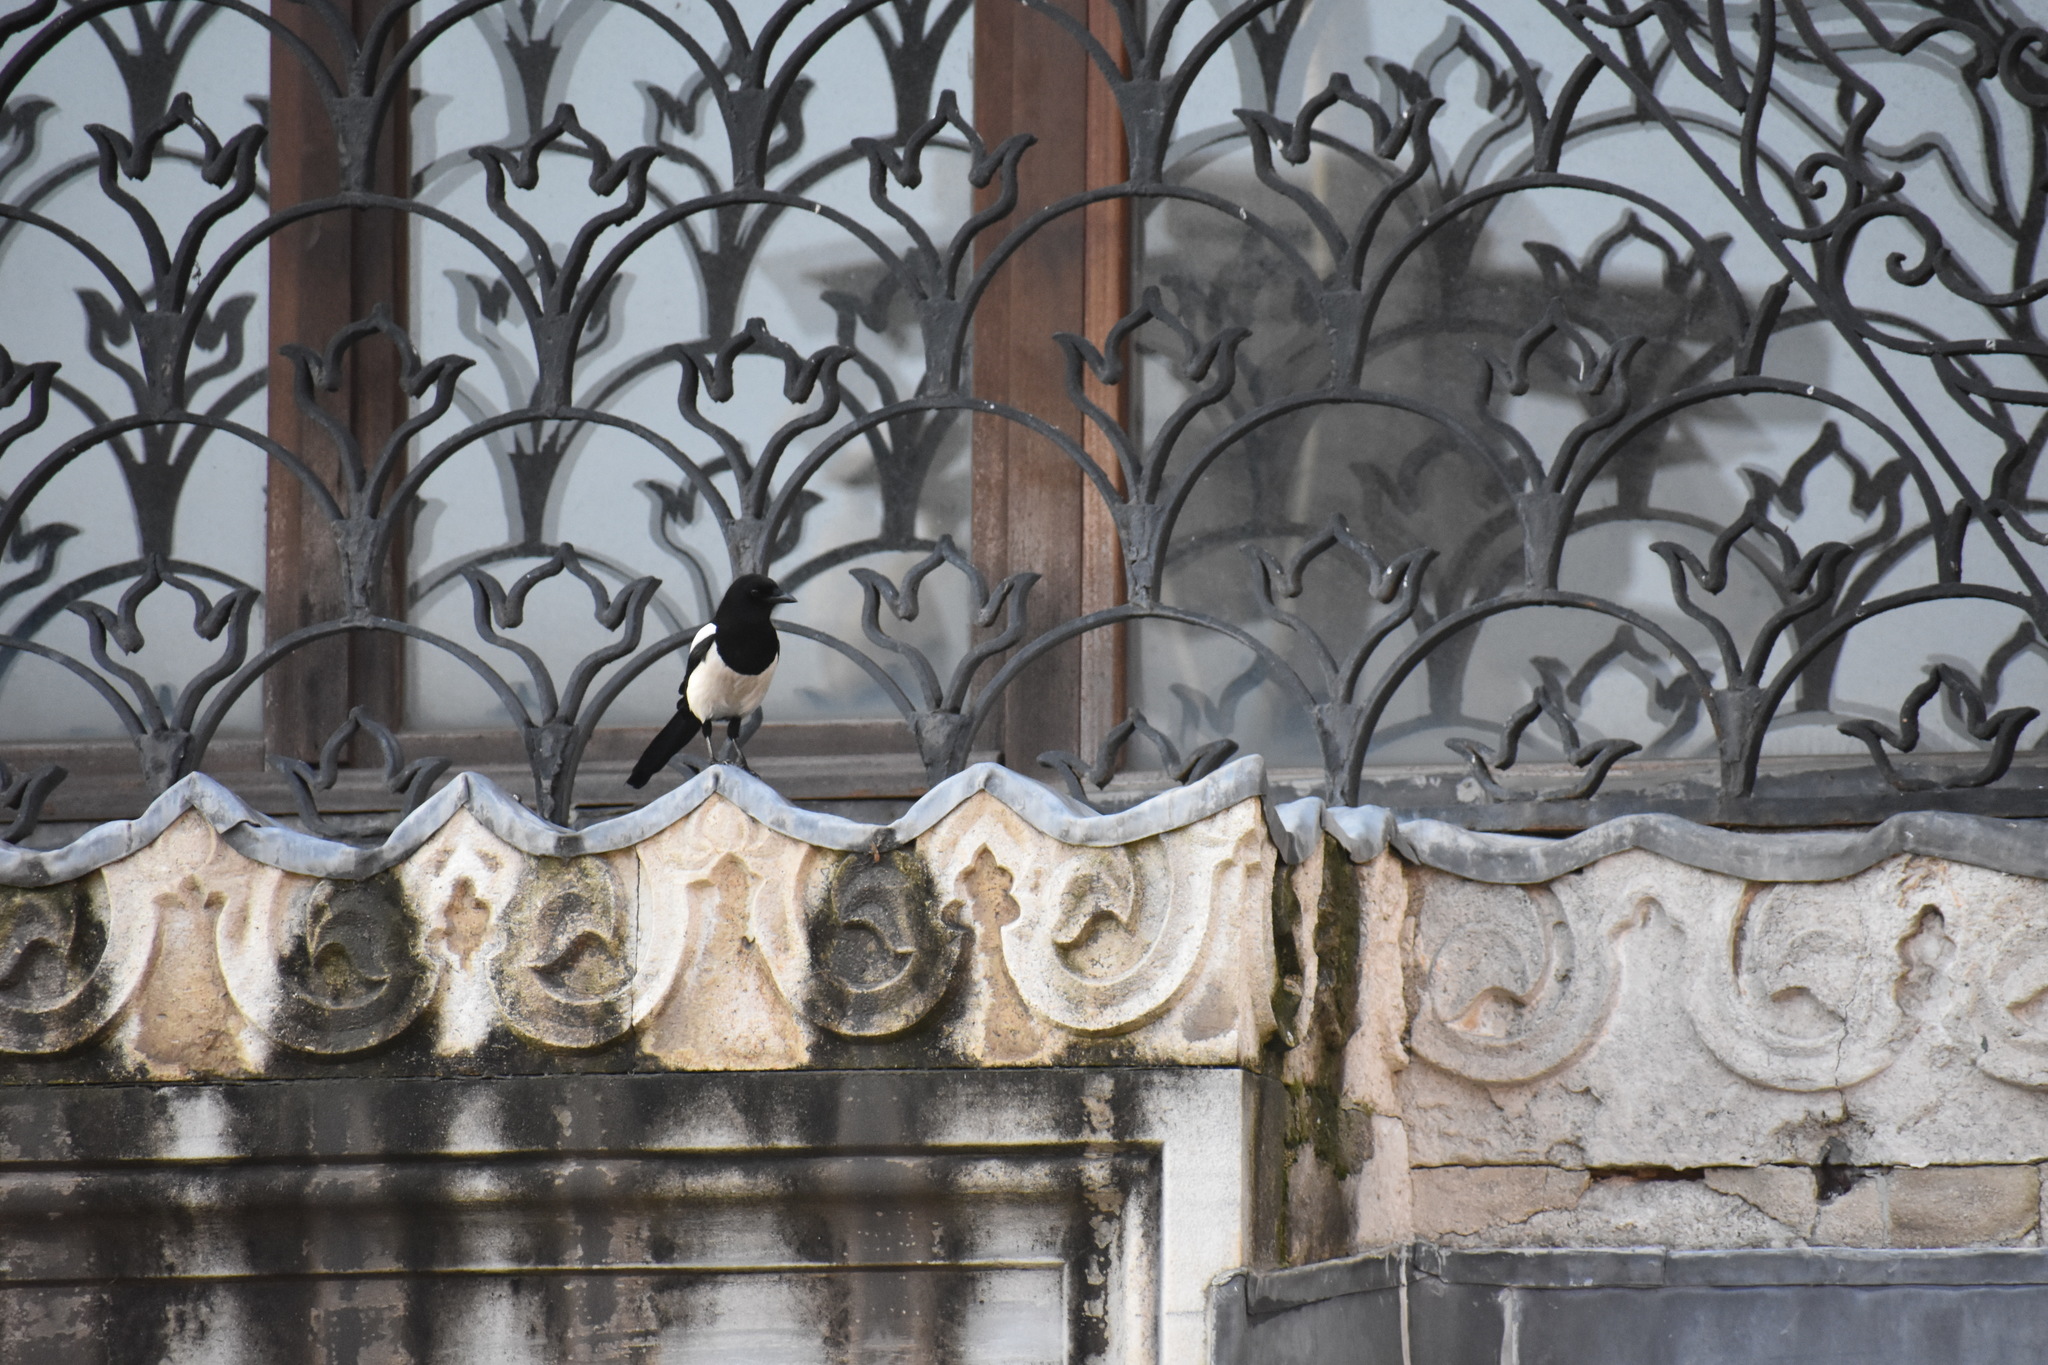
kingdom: Animalia
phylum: Chordata
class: Aves
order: Passeriformes
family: Corvidae
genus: Pica
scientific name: Pica pica
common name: Eurasian magpie
